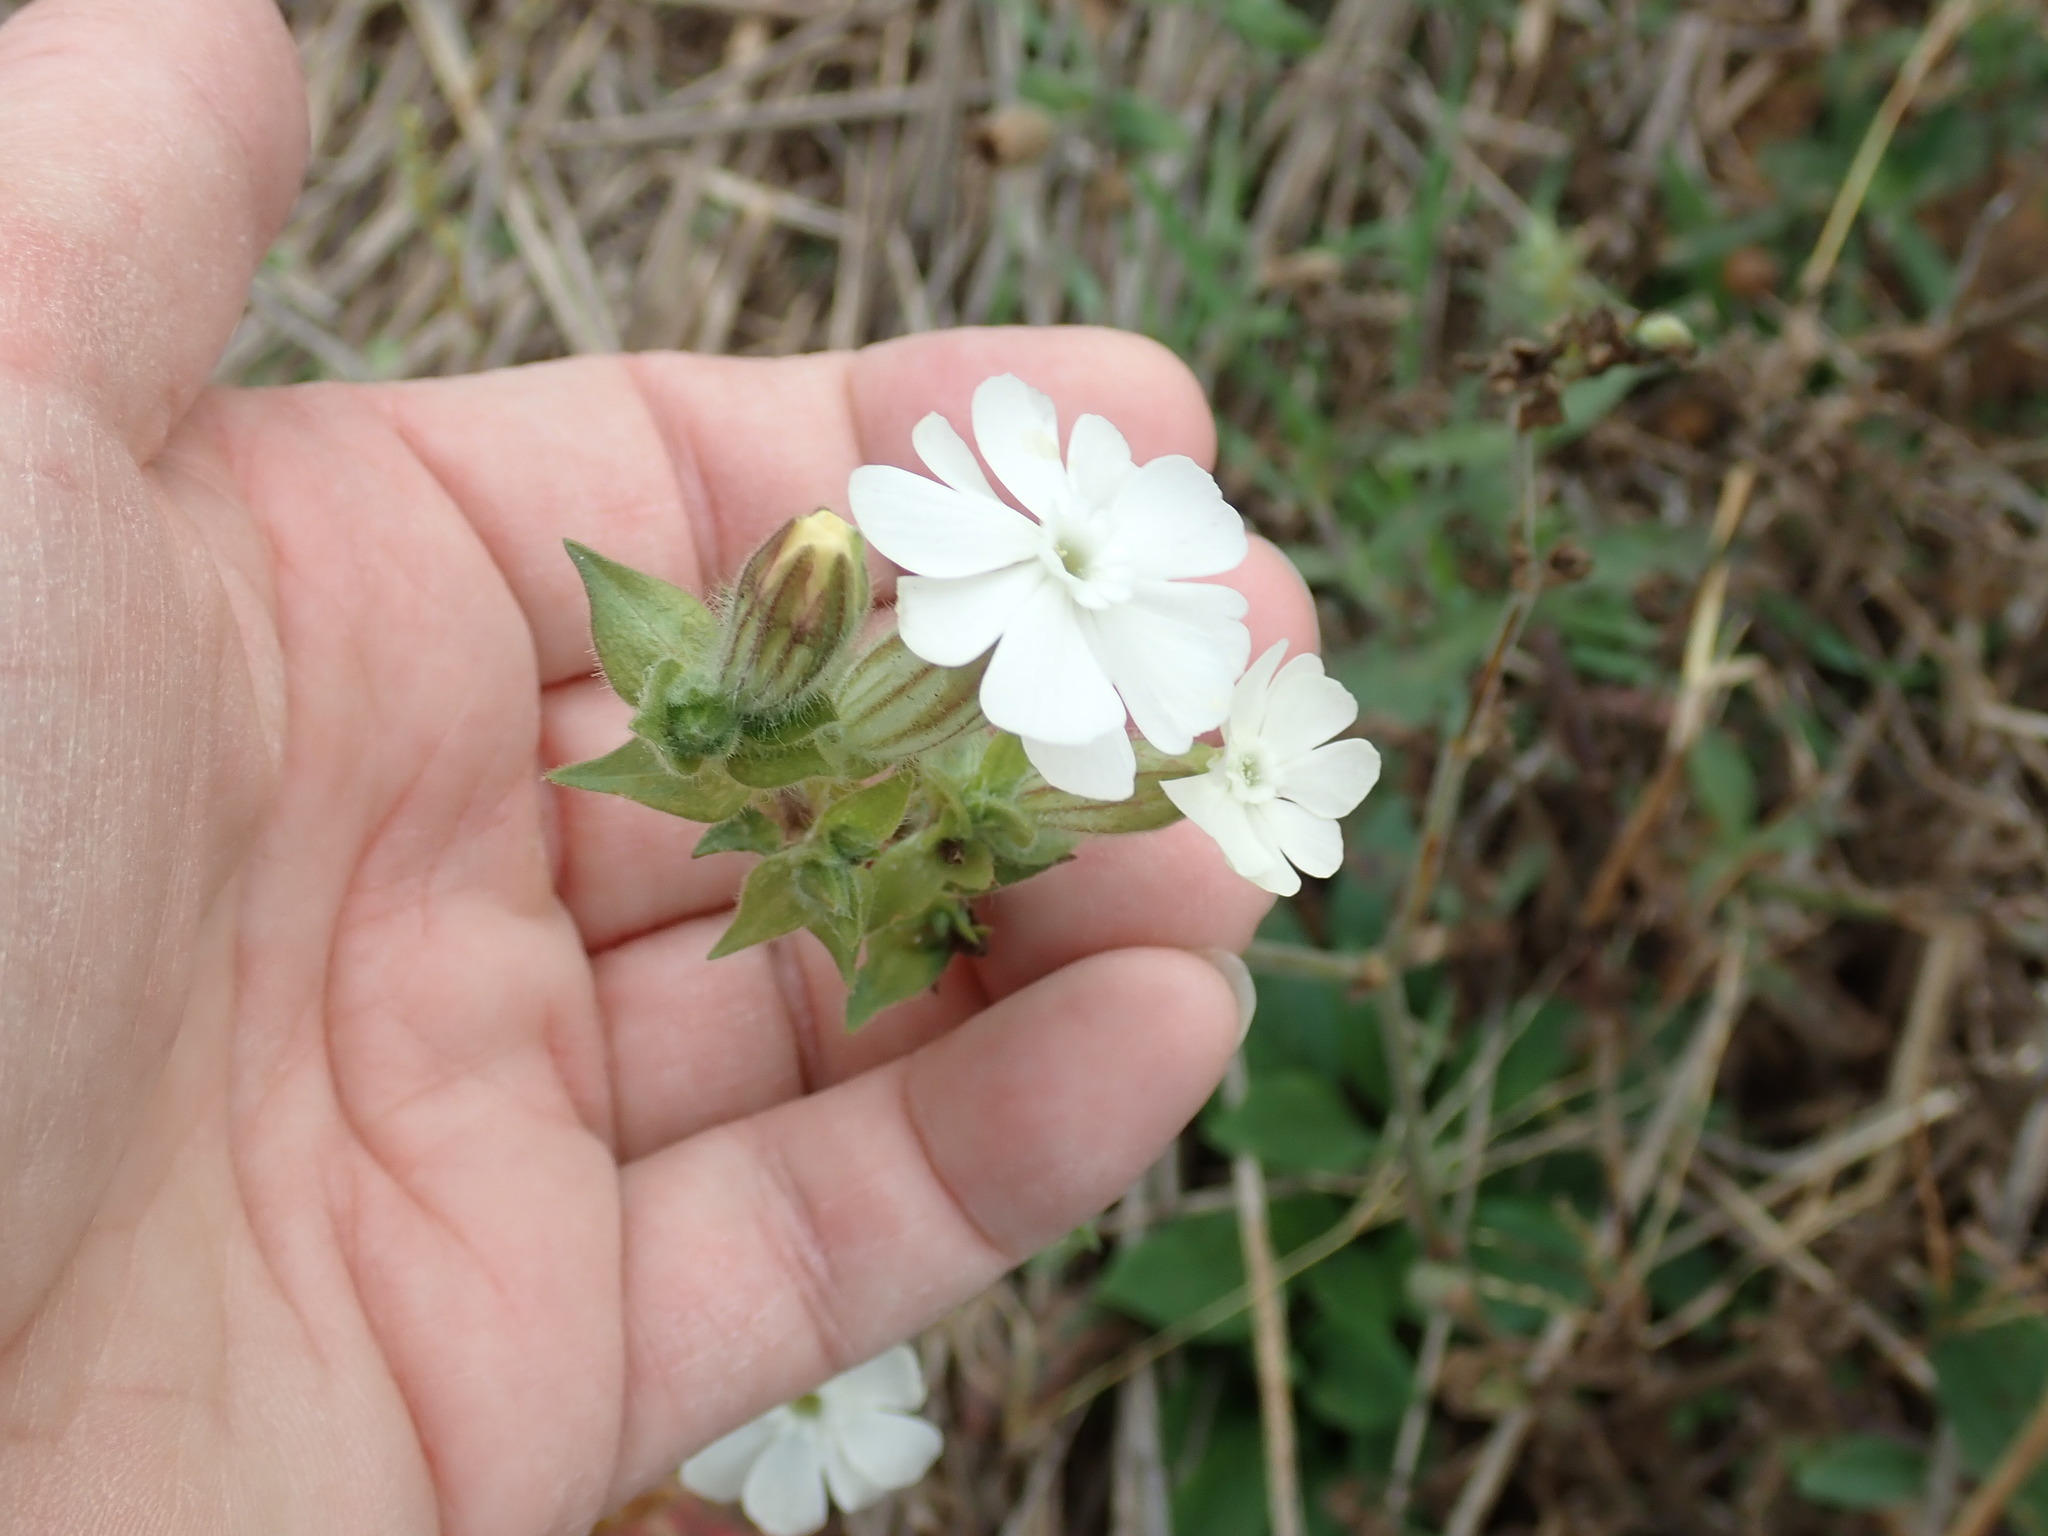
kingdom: Plantae
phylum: Tracheophyta
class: Magnoliopsida
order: Caryophyllales
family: Caryophyllaceae
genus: Silene
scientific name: Silene latifolia
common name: White campion
